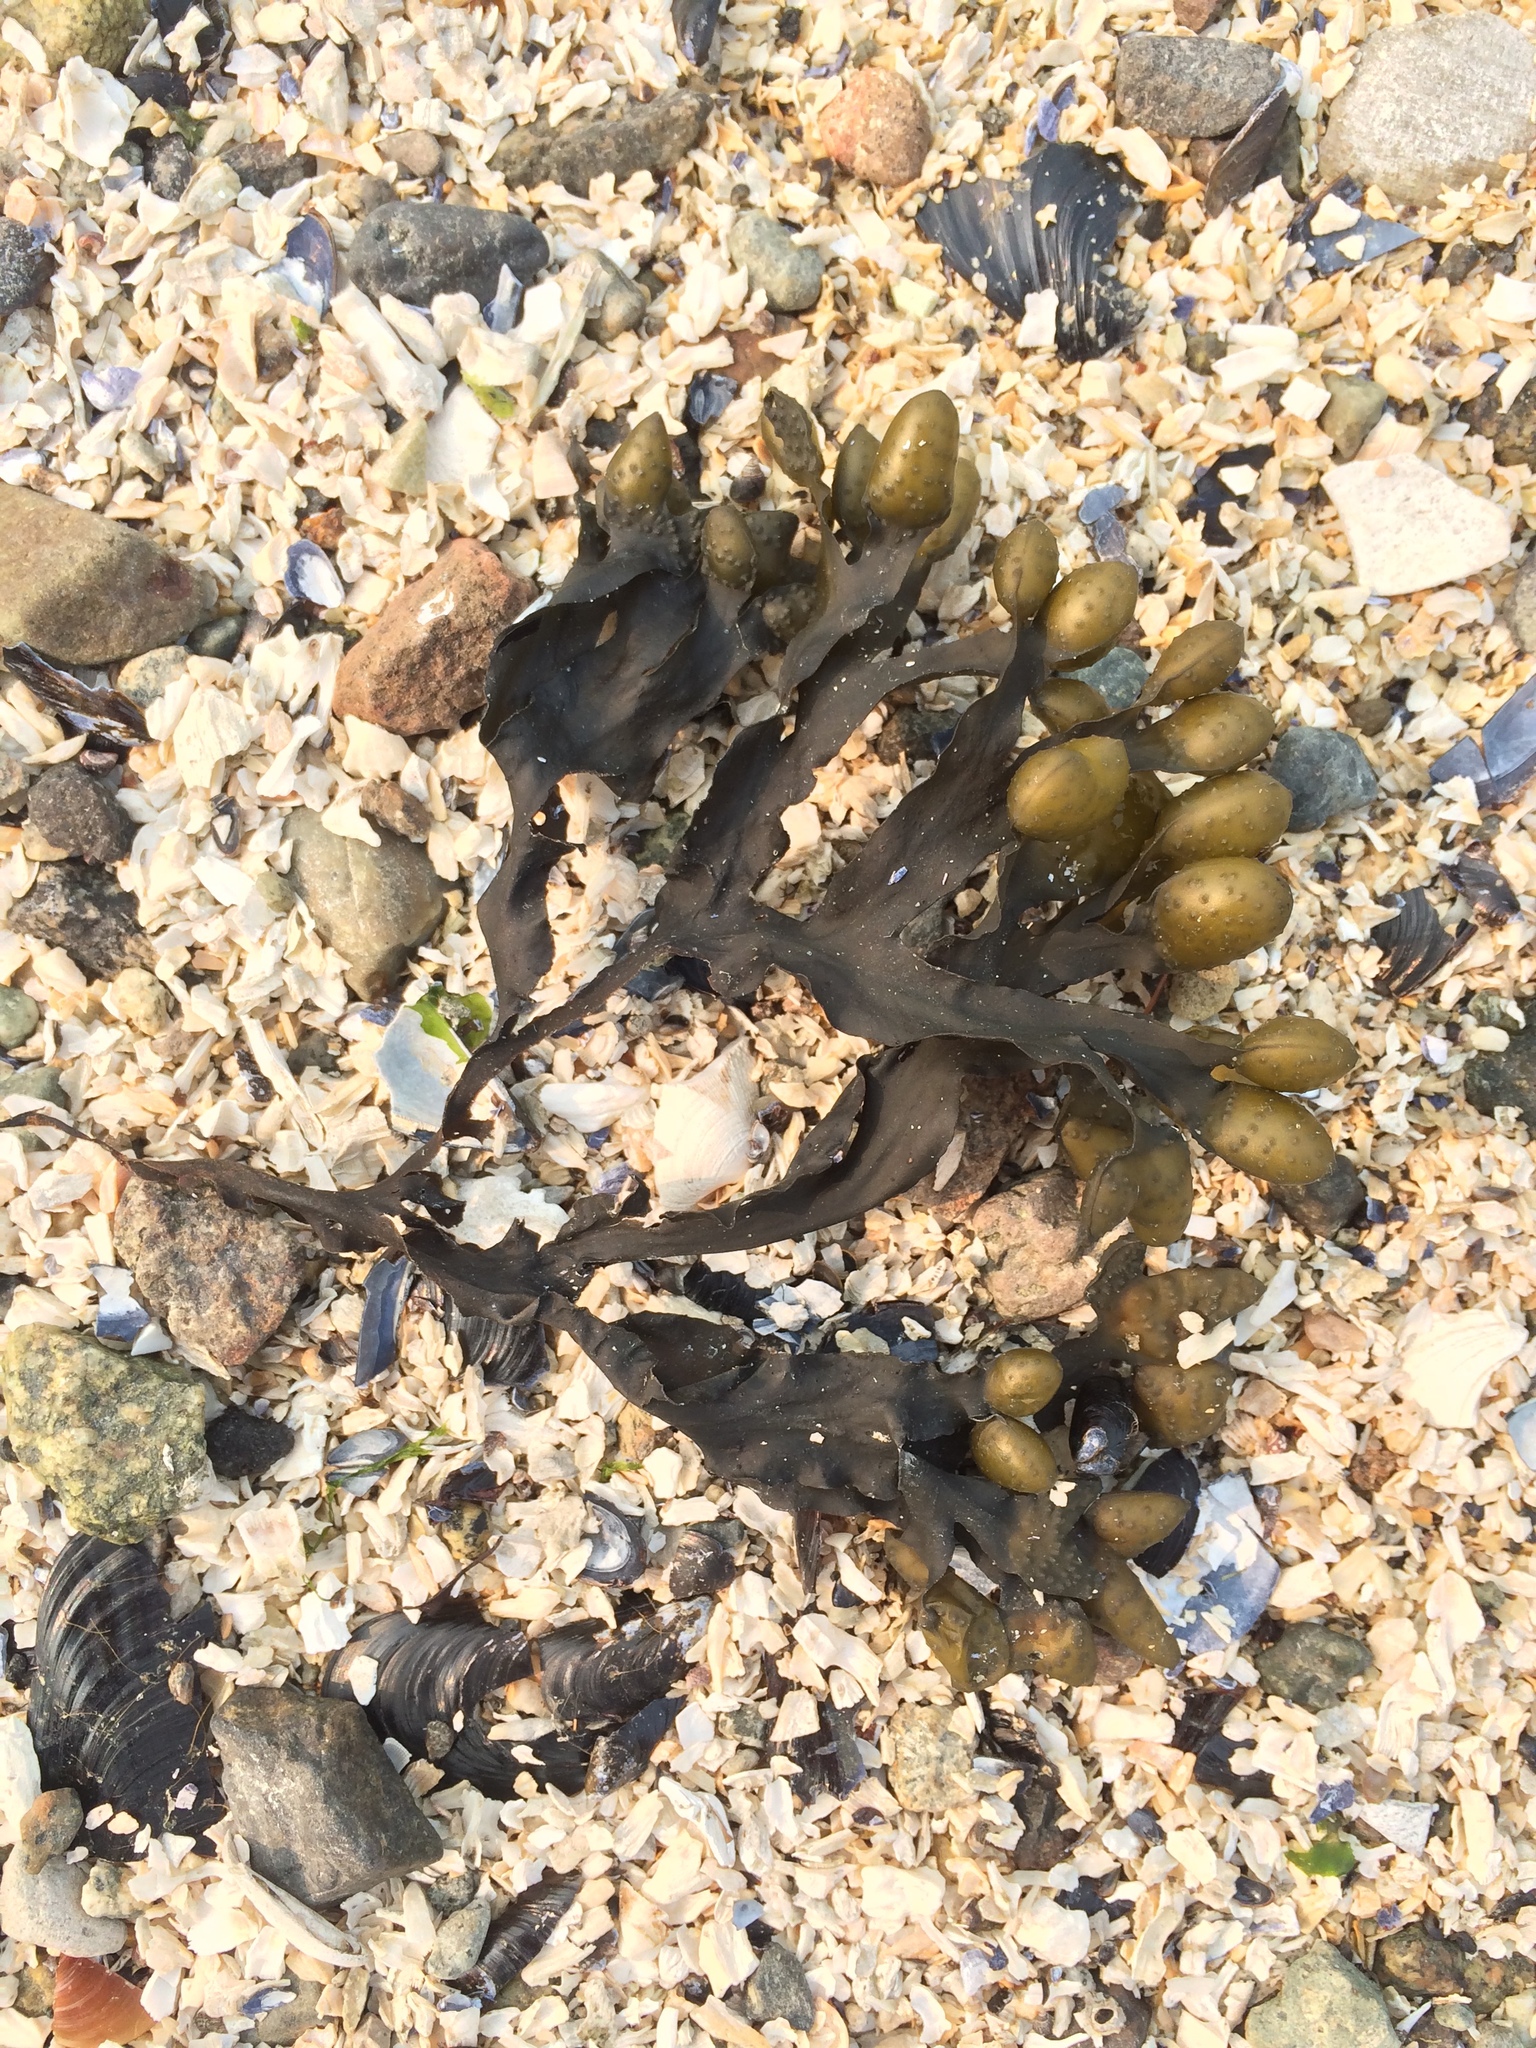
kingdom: Chromista
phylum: Ochrophyta
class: Phaeophyceae
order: Fucales
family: Fucaceae
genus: Fucus
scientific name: Fucus distichus
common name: Rockweed
